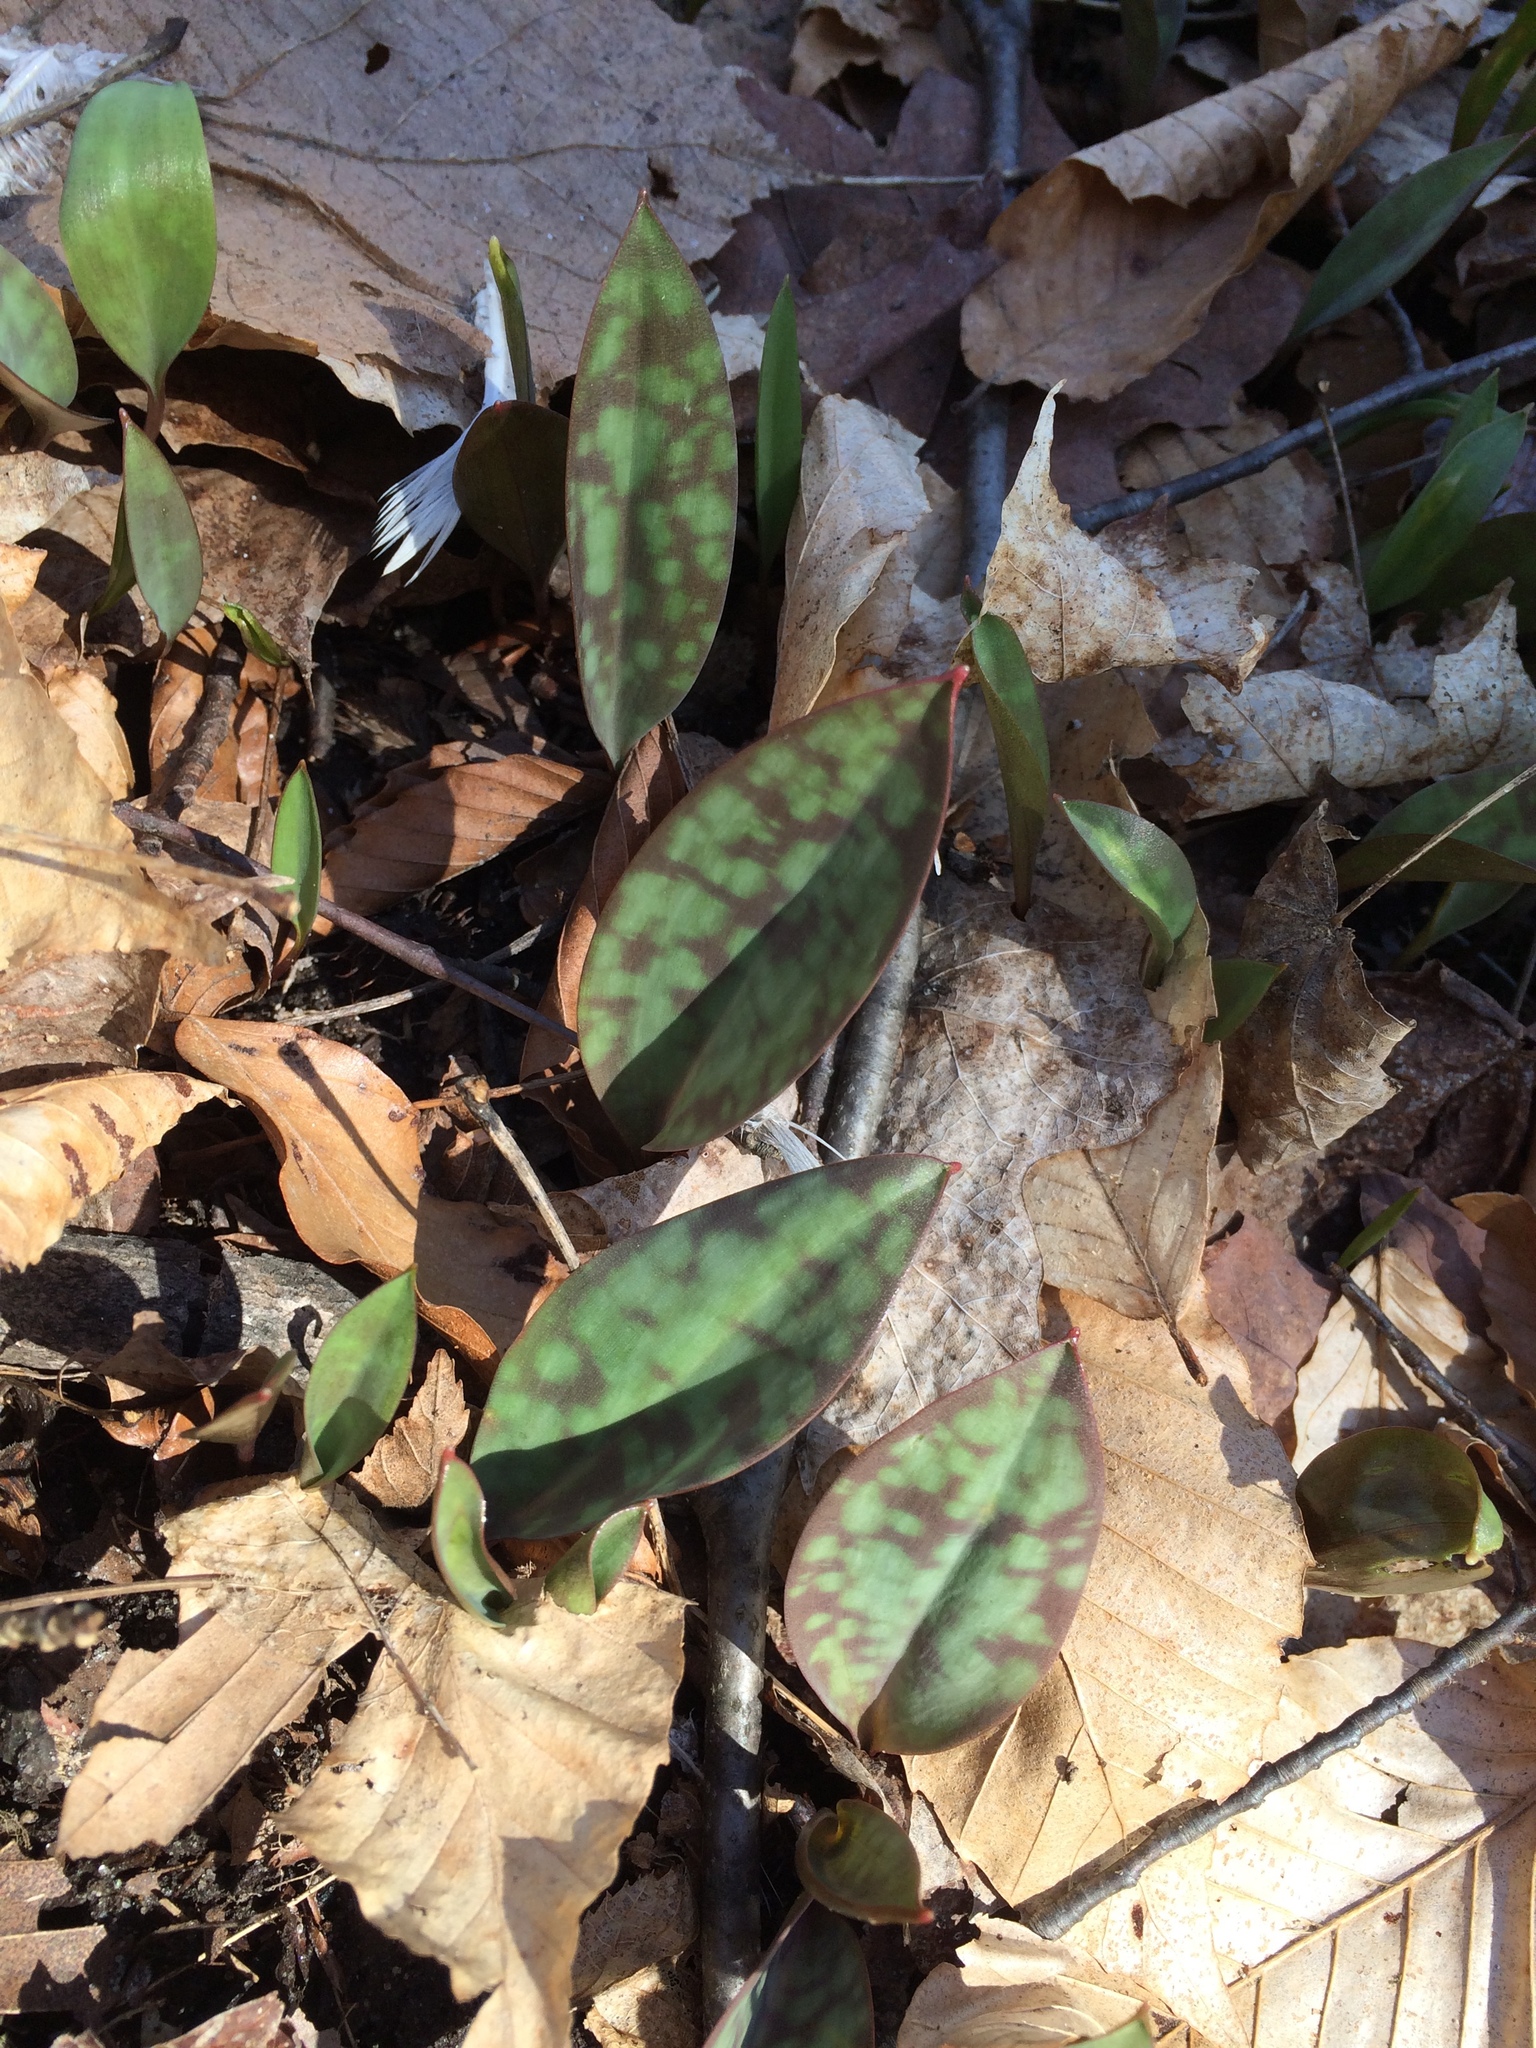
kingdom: Plantae
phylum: Tracheophyta
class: Liliopsida
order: Liliales
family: Liliaceae
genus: Erythronium
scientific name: Erythronium americanum
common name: Yellow adder's-tongue
